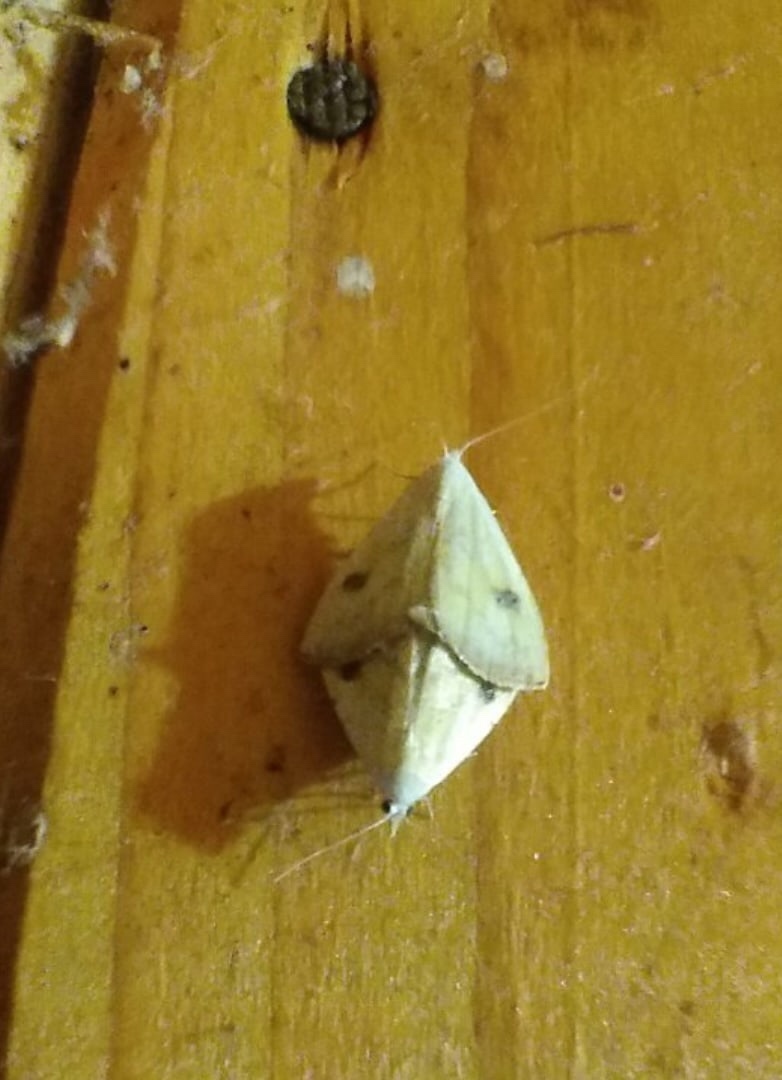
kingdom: Animalia
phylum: Arthropoda
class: Insecta
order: Lepidoptera
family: Erebidae
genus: Rivula
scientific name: Rivula sericealis
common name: Straw dot
